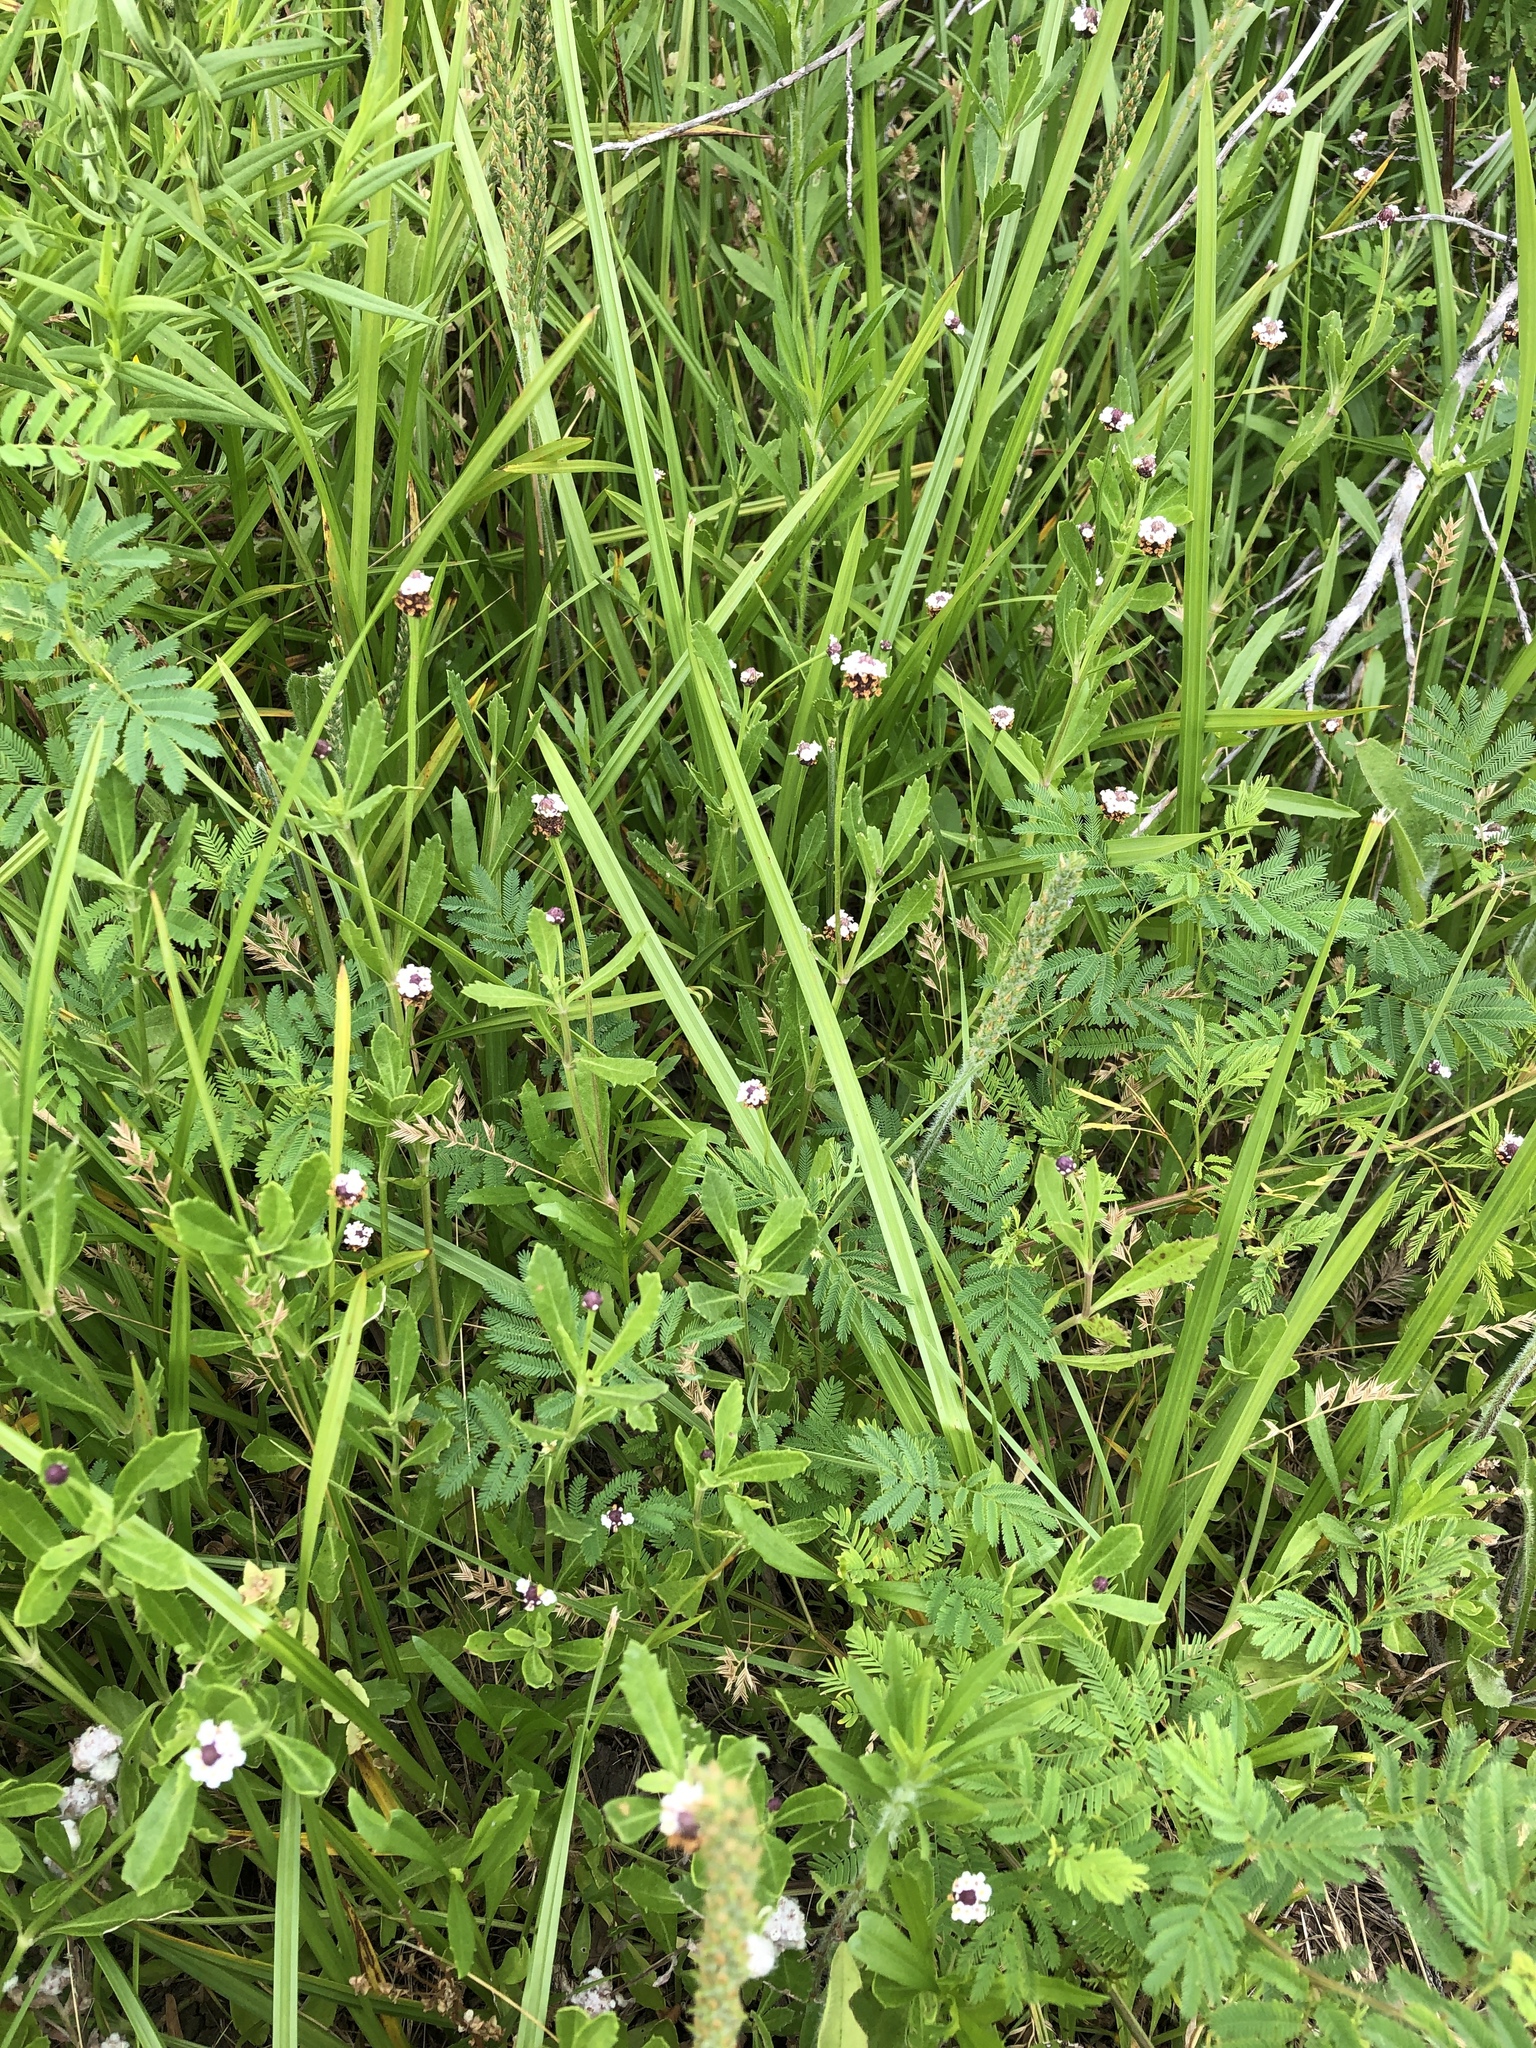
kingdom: Plantae
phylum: Tracheophyta
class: Magnoliopsida
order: Lamiales
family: Verbenaceae
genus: Phyla
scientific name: Phyla nodiflora
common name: Frogfruit
